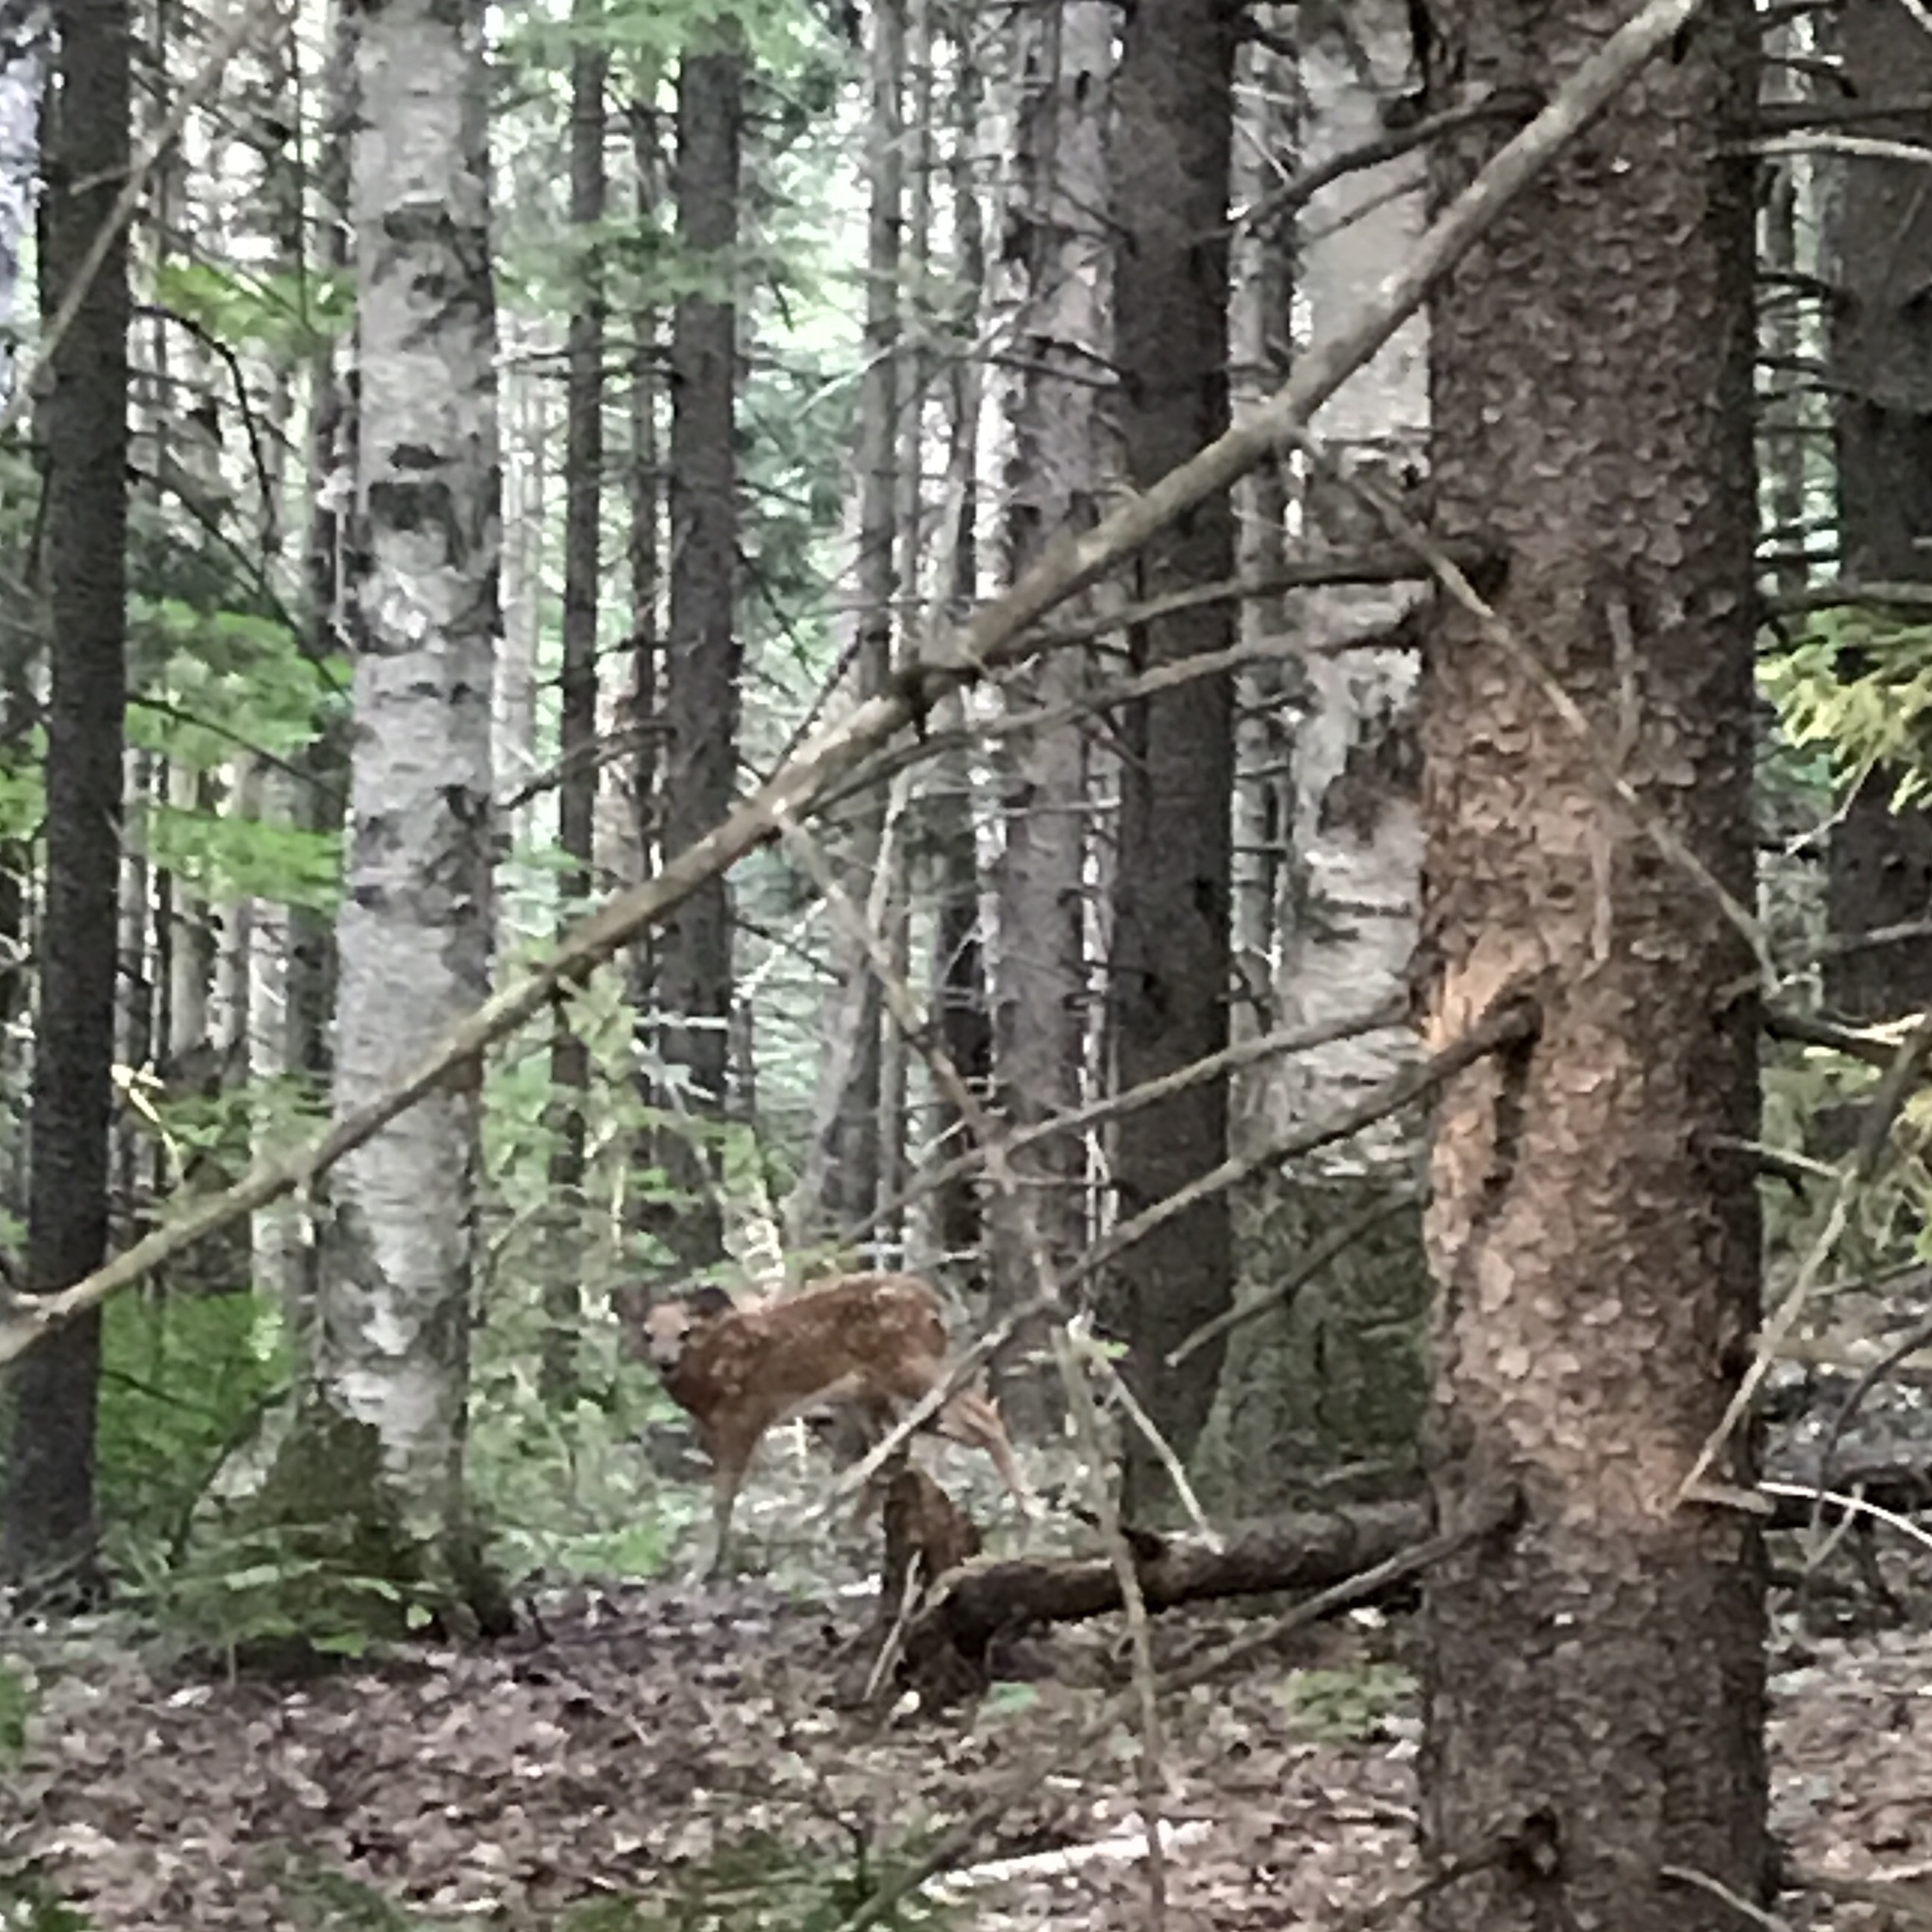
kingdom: Plantae
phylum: Tracheophyta
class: Magnoliopsida
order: Fagales
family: Betulaceae
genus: Betula
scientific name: Betula papyrifera
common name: Paper birch
